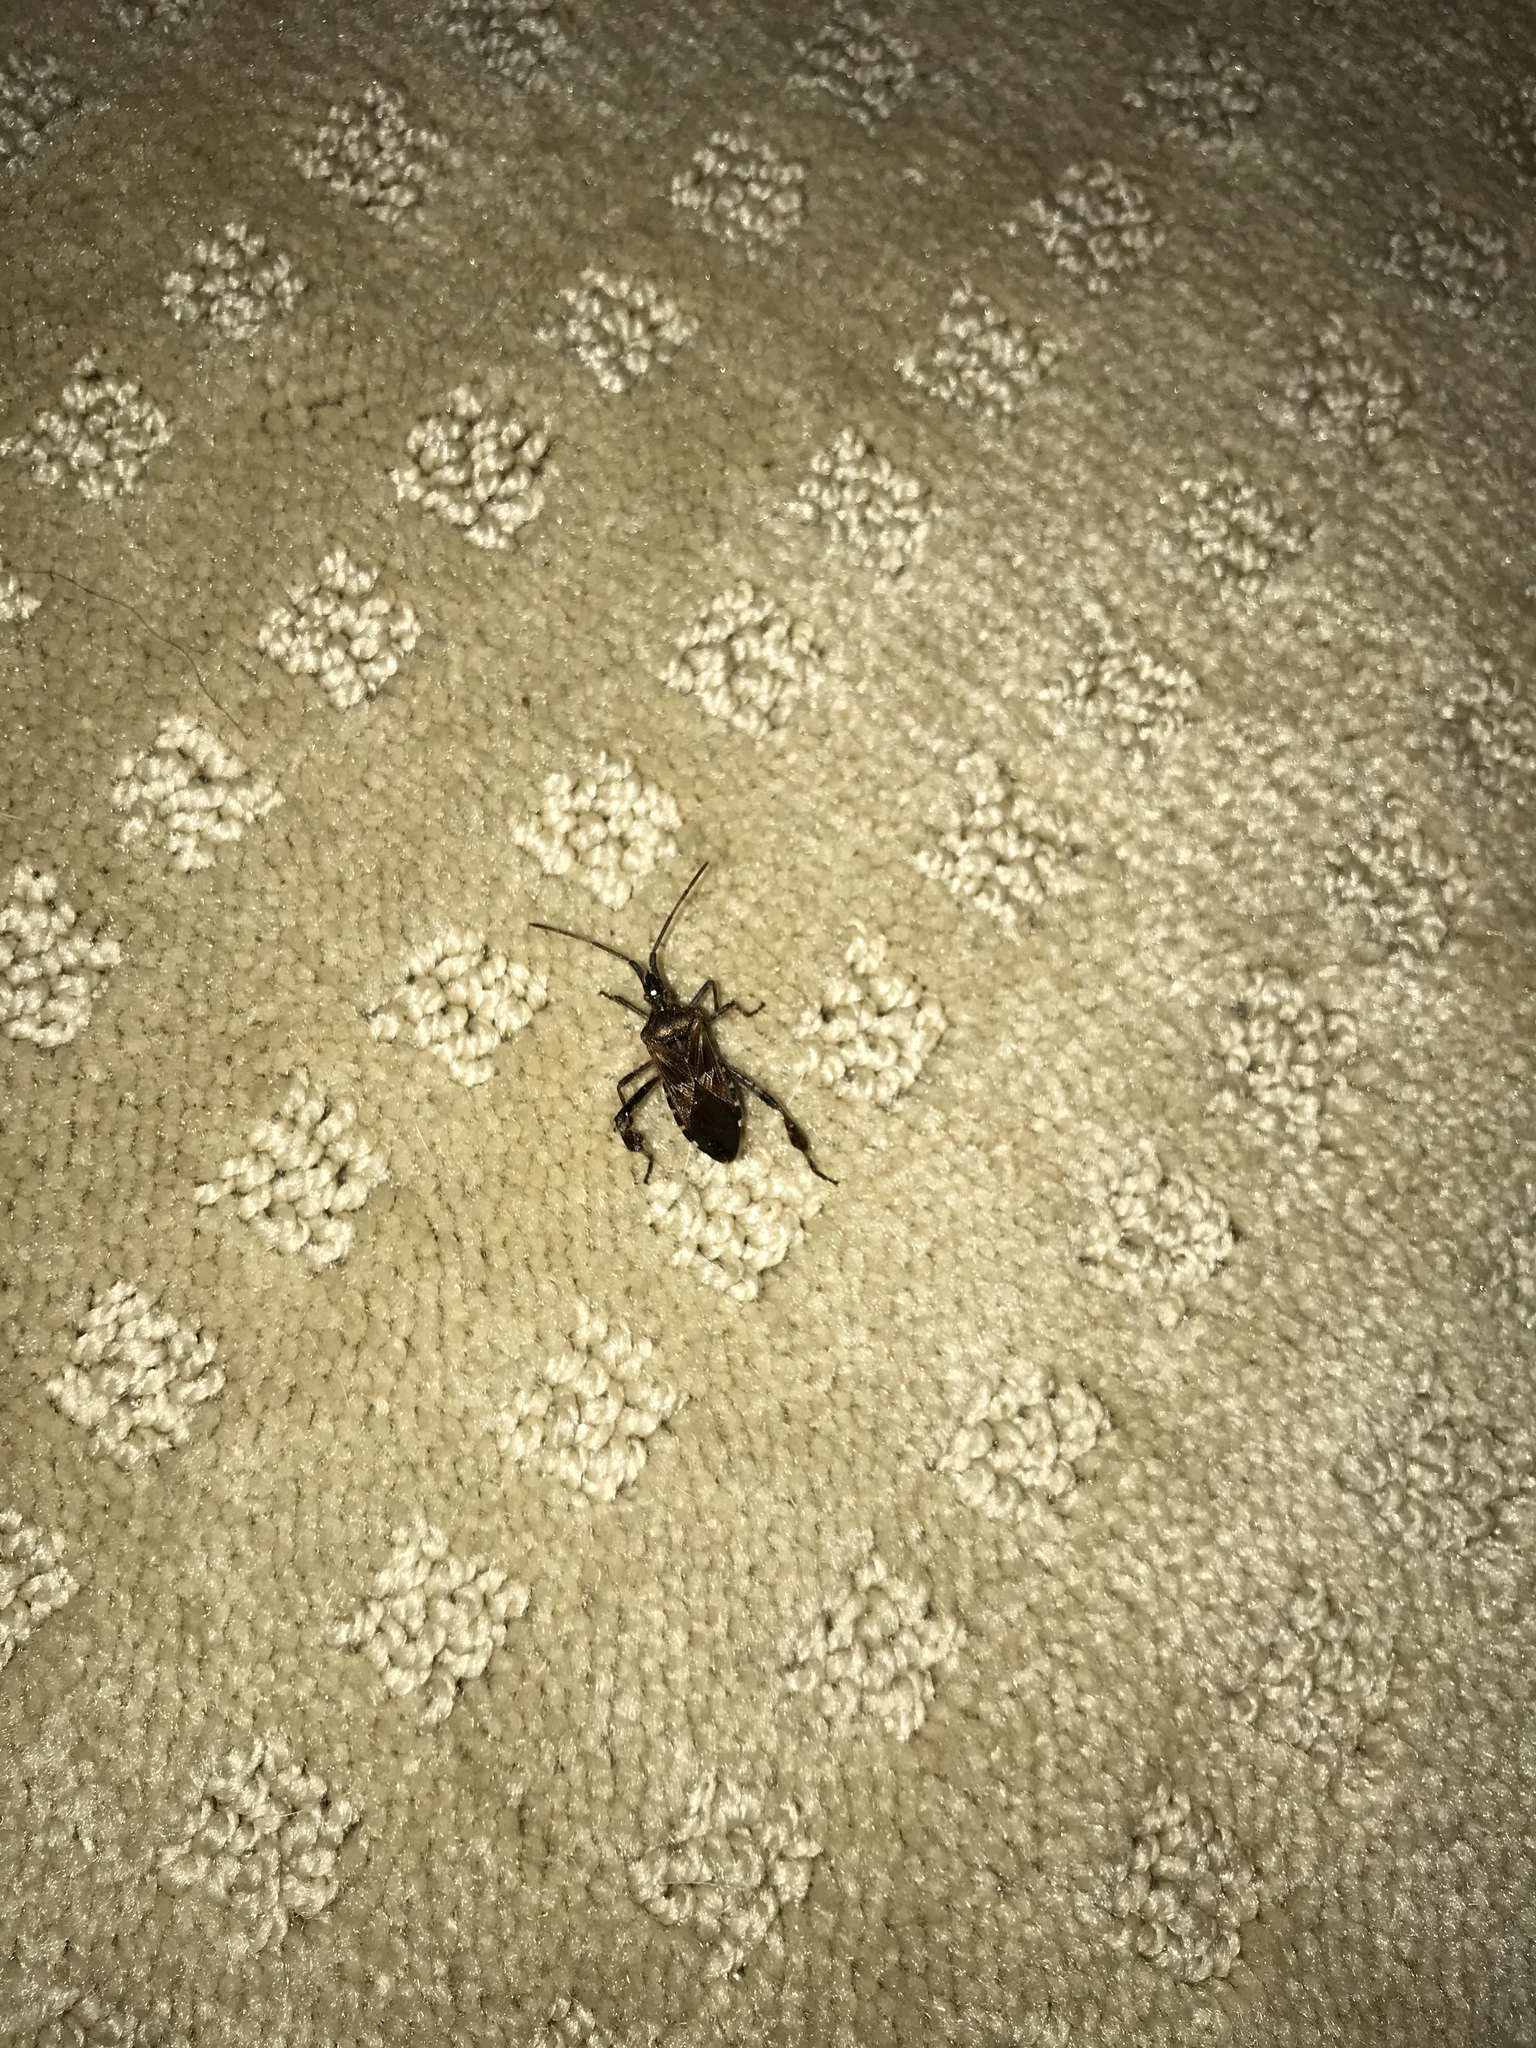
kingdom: Animalia
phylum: Arthropoda
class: Insecta
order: Hemiptera
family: Coreidae
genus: Leptoglossus
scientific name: Leptoglossus occidentalis
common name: Western conifer-seed bug
